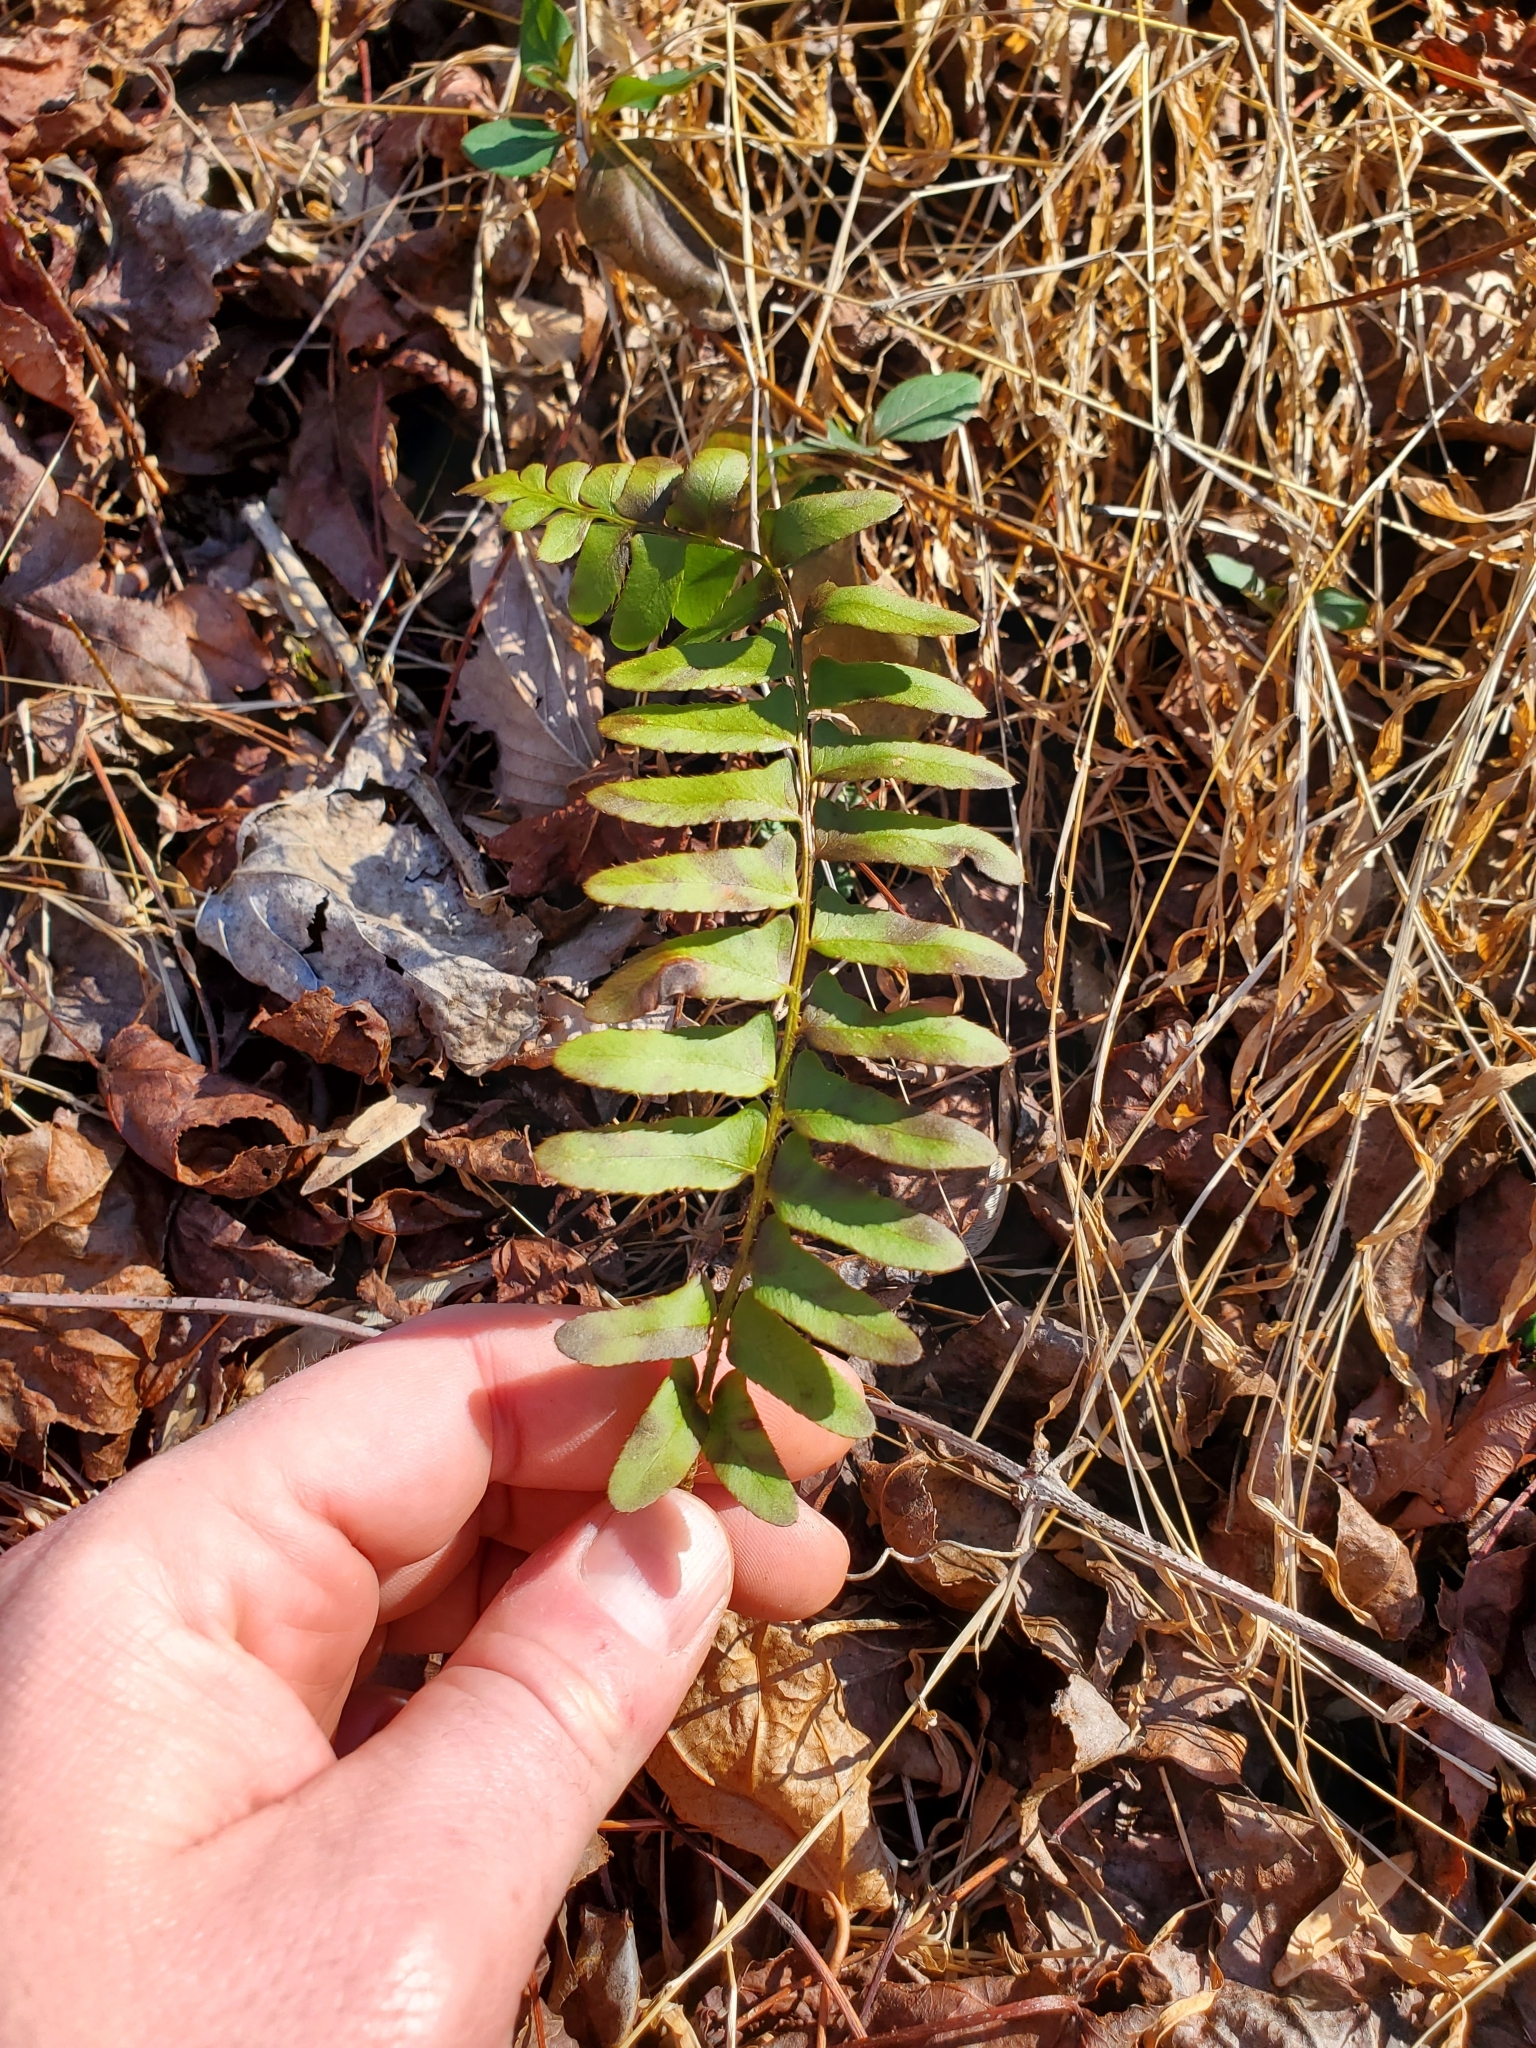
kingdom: Plantae
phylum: Tracheophyta
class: Polypodiopsida
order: Polypodiales
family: Dryopteridaceae
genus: Polystichum
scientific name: Polystichum acrostichoides
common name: Christmas fern
